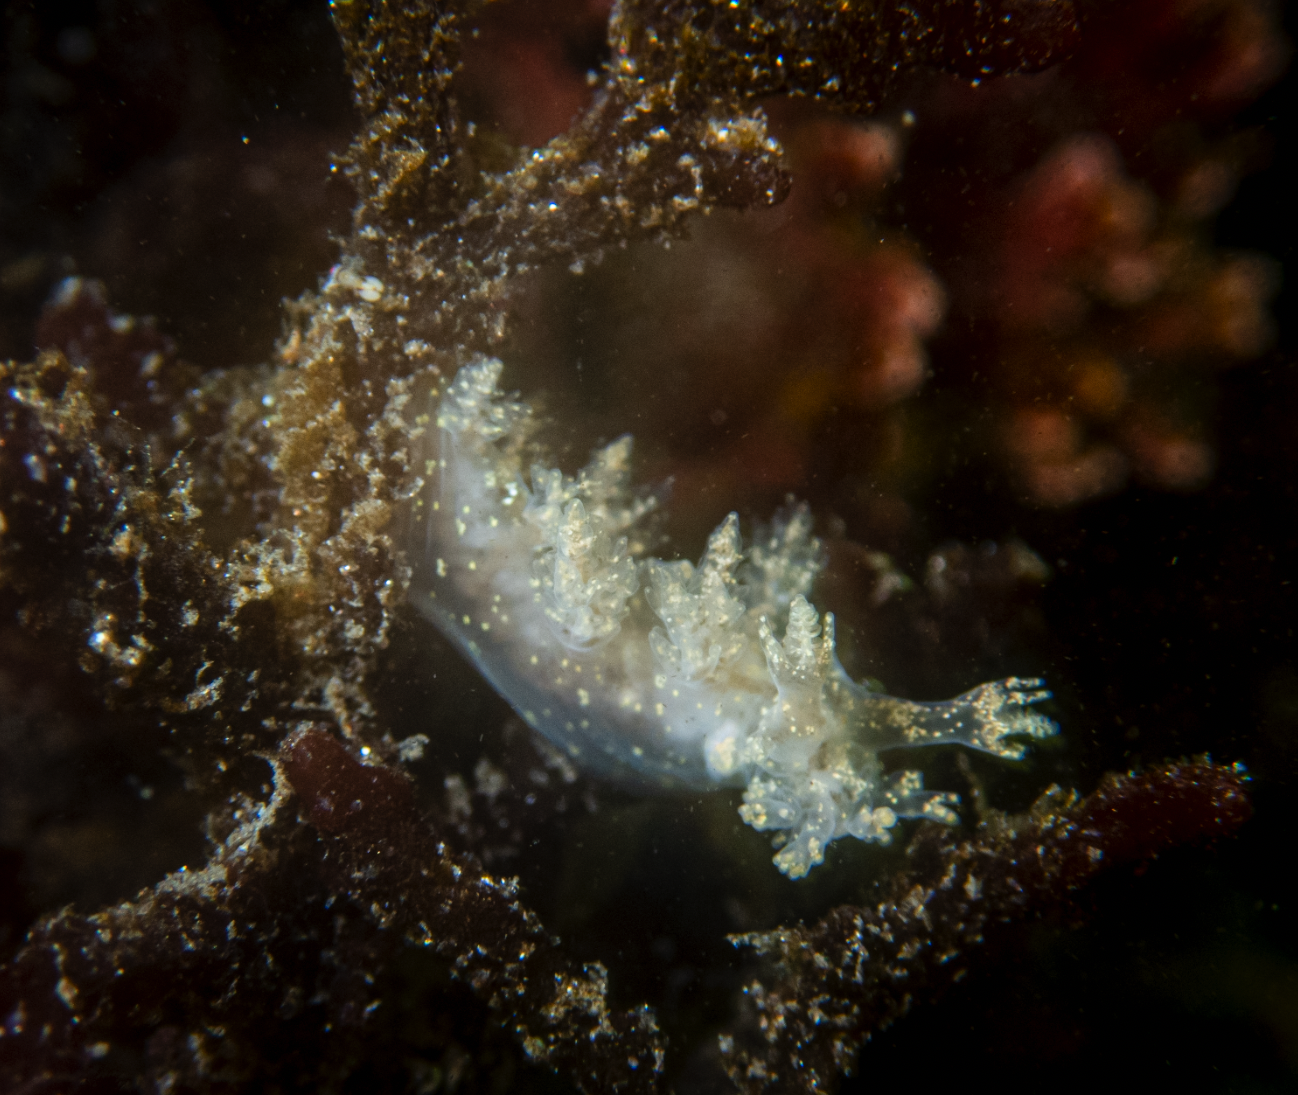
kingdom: Animalia
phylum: Mollusca
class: Gastropoda
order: Nudibranchia
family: Dendronotidae
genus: Dendronotus
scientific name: Dendronotus venustus
